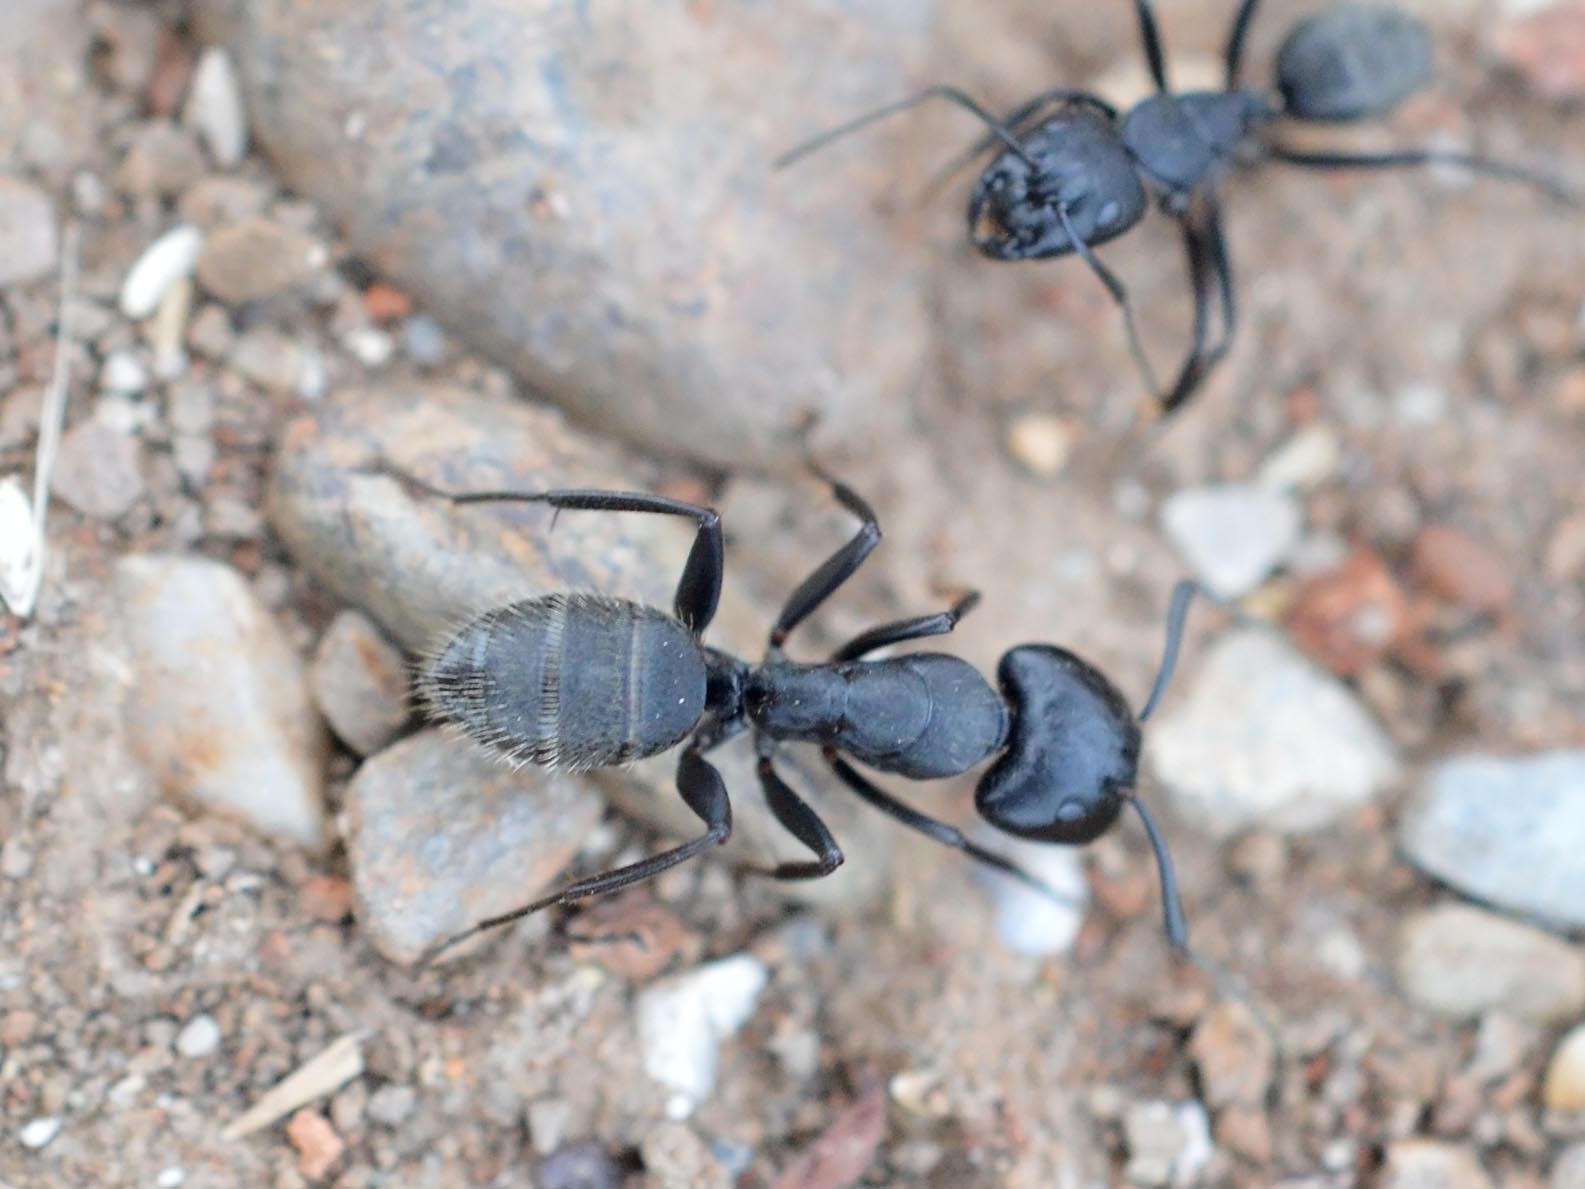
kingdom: Animalia
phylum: Arthropoda
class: Insecta
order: Hymenoptera
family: Formicidae
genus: Camponotus
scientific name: Camponotus vagus
